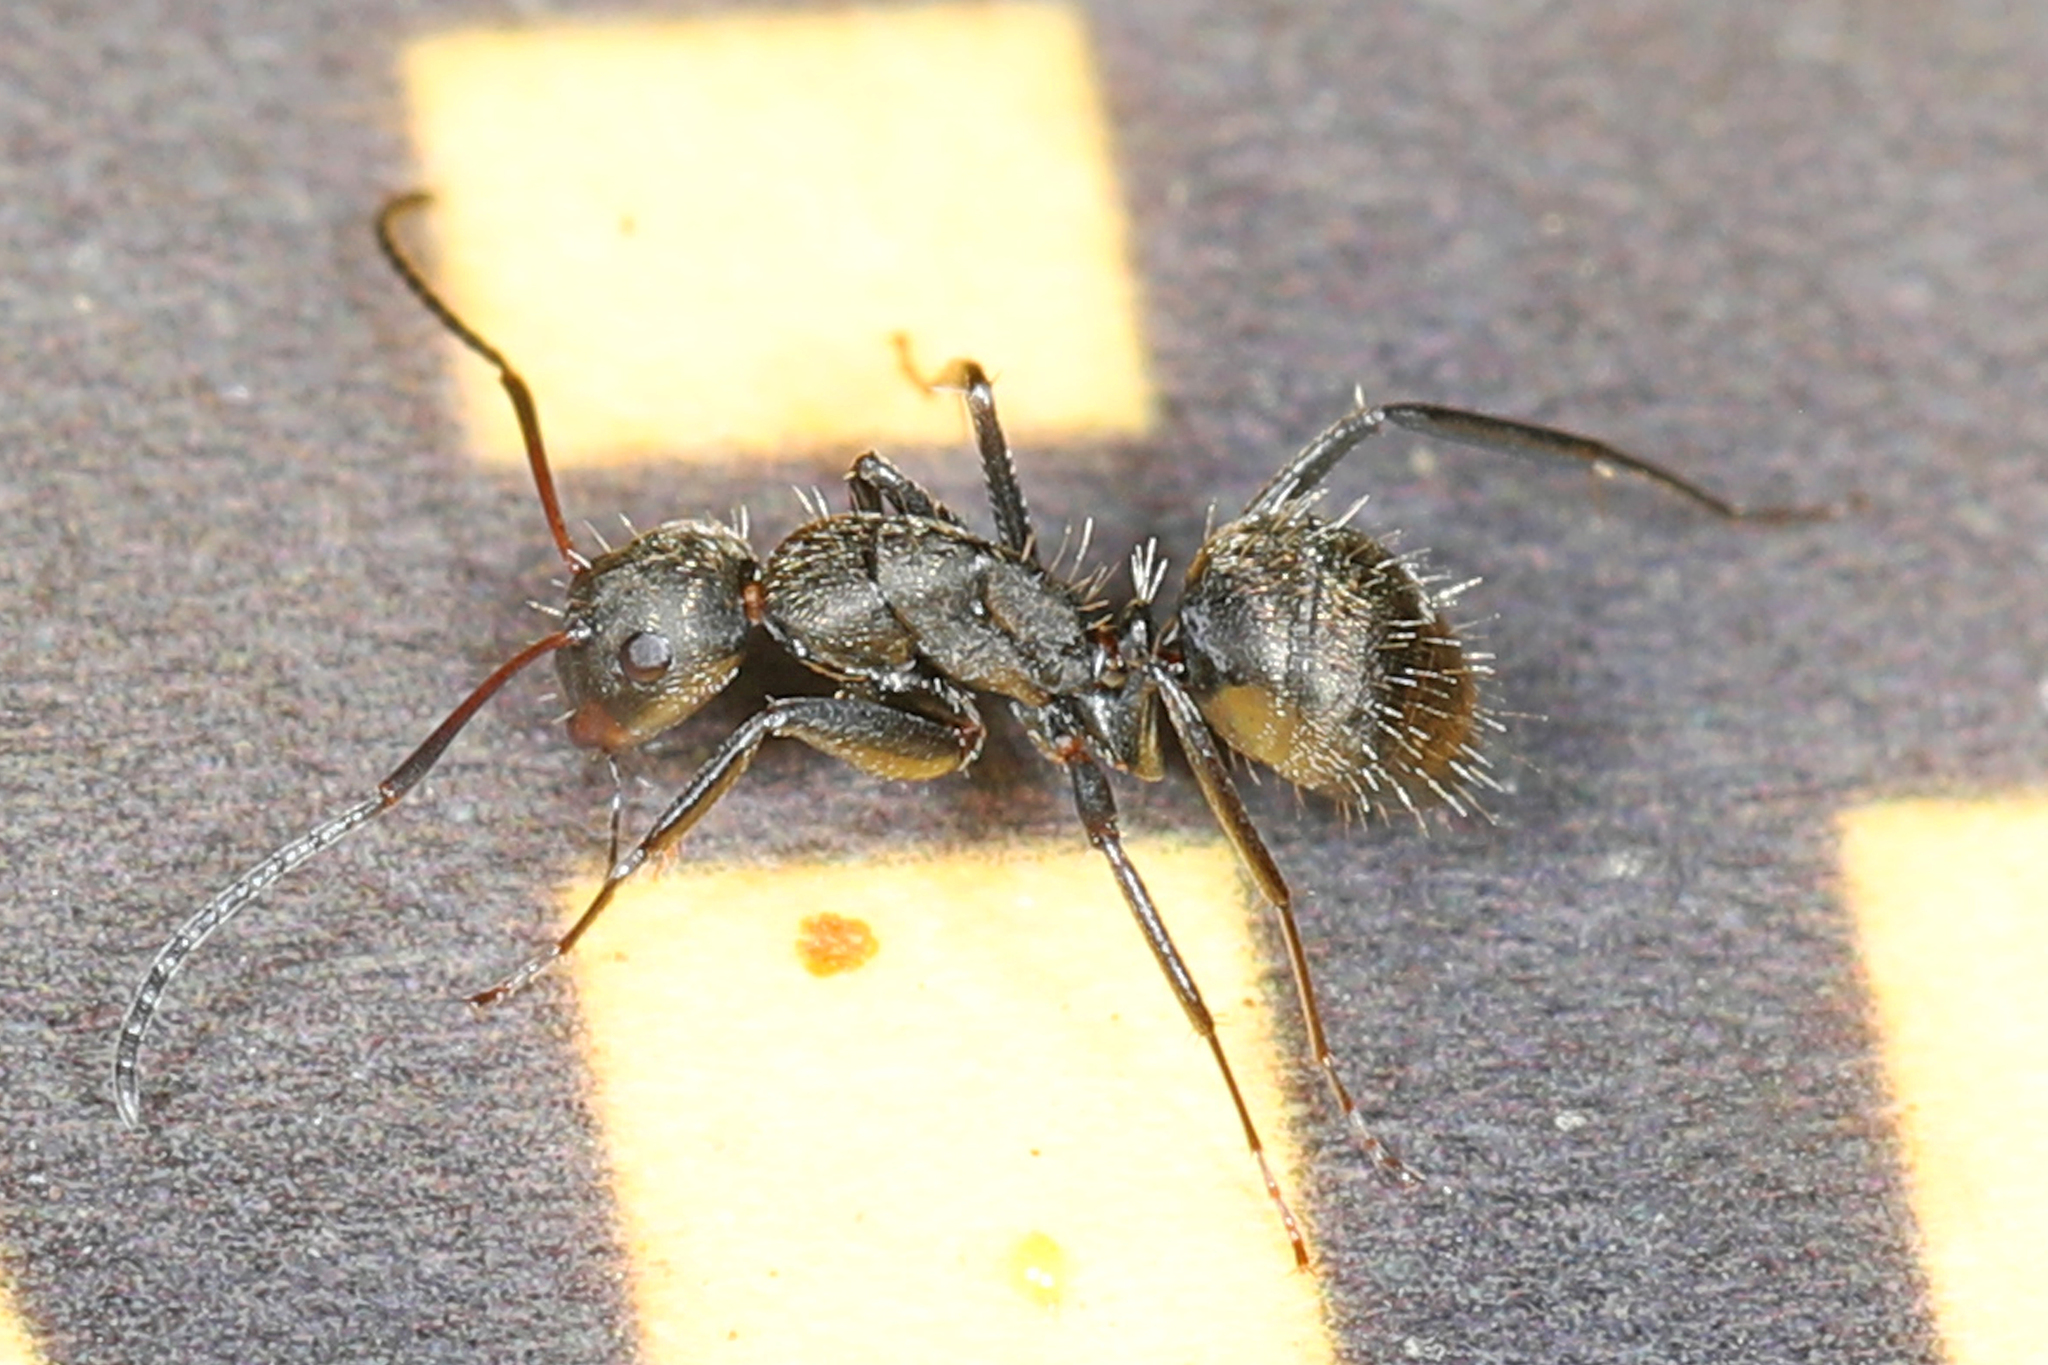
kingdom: Animalia
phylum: Arthropoda
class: Insecta
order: Hymenoptera
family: Formicidae
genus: Camponotus
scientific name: Camponotus novogranadensis
